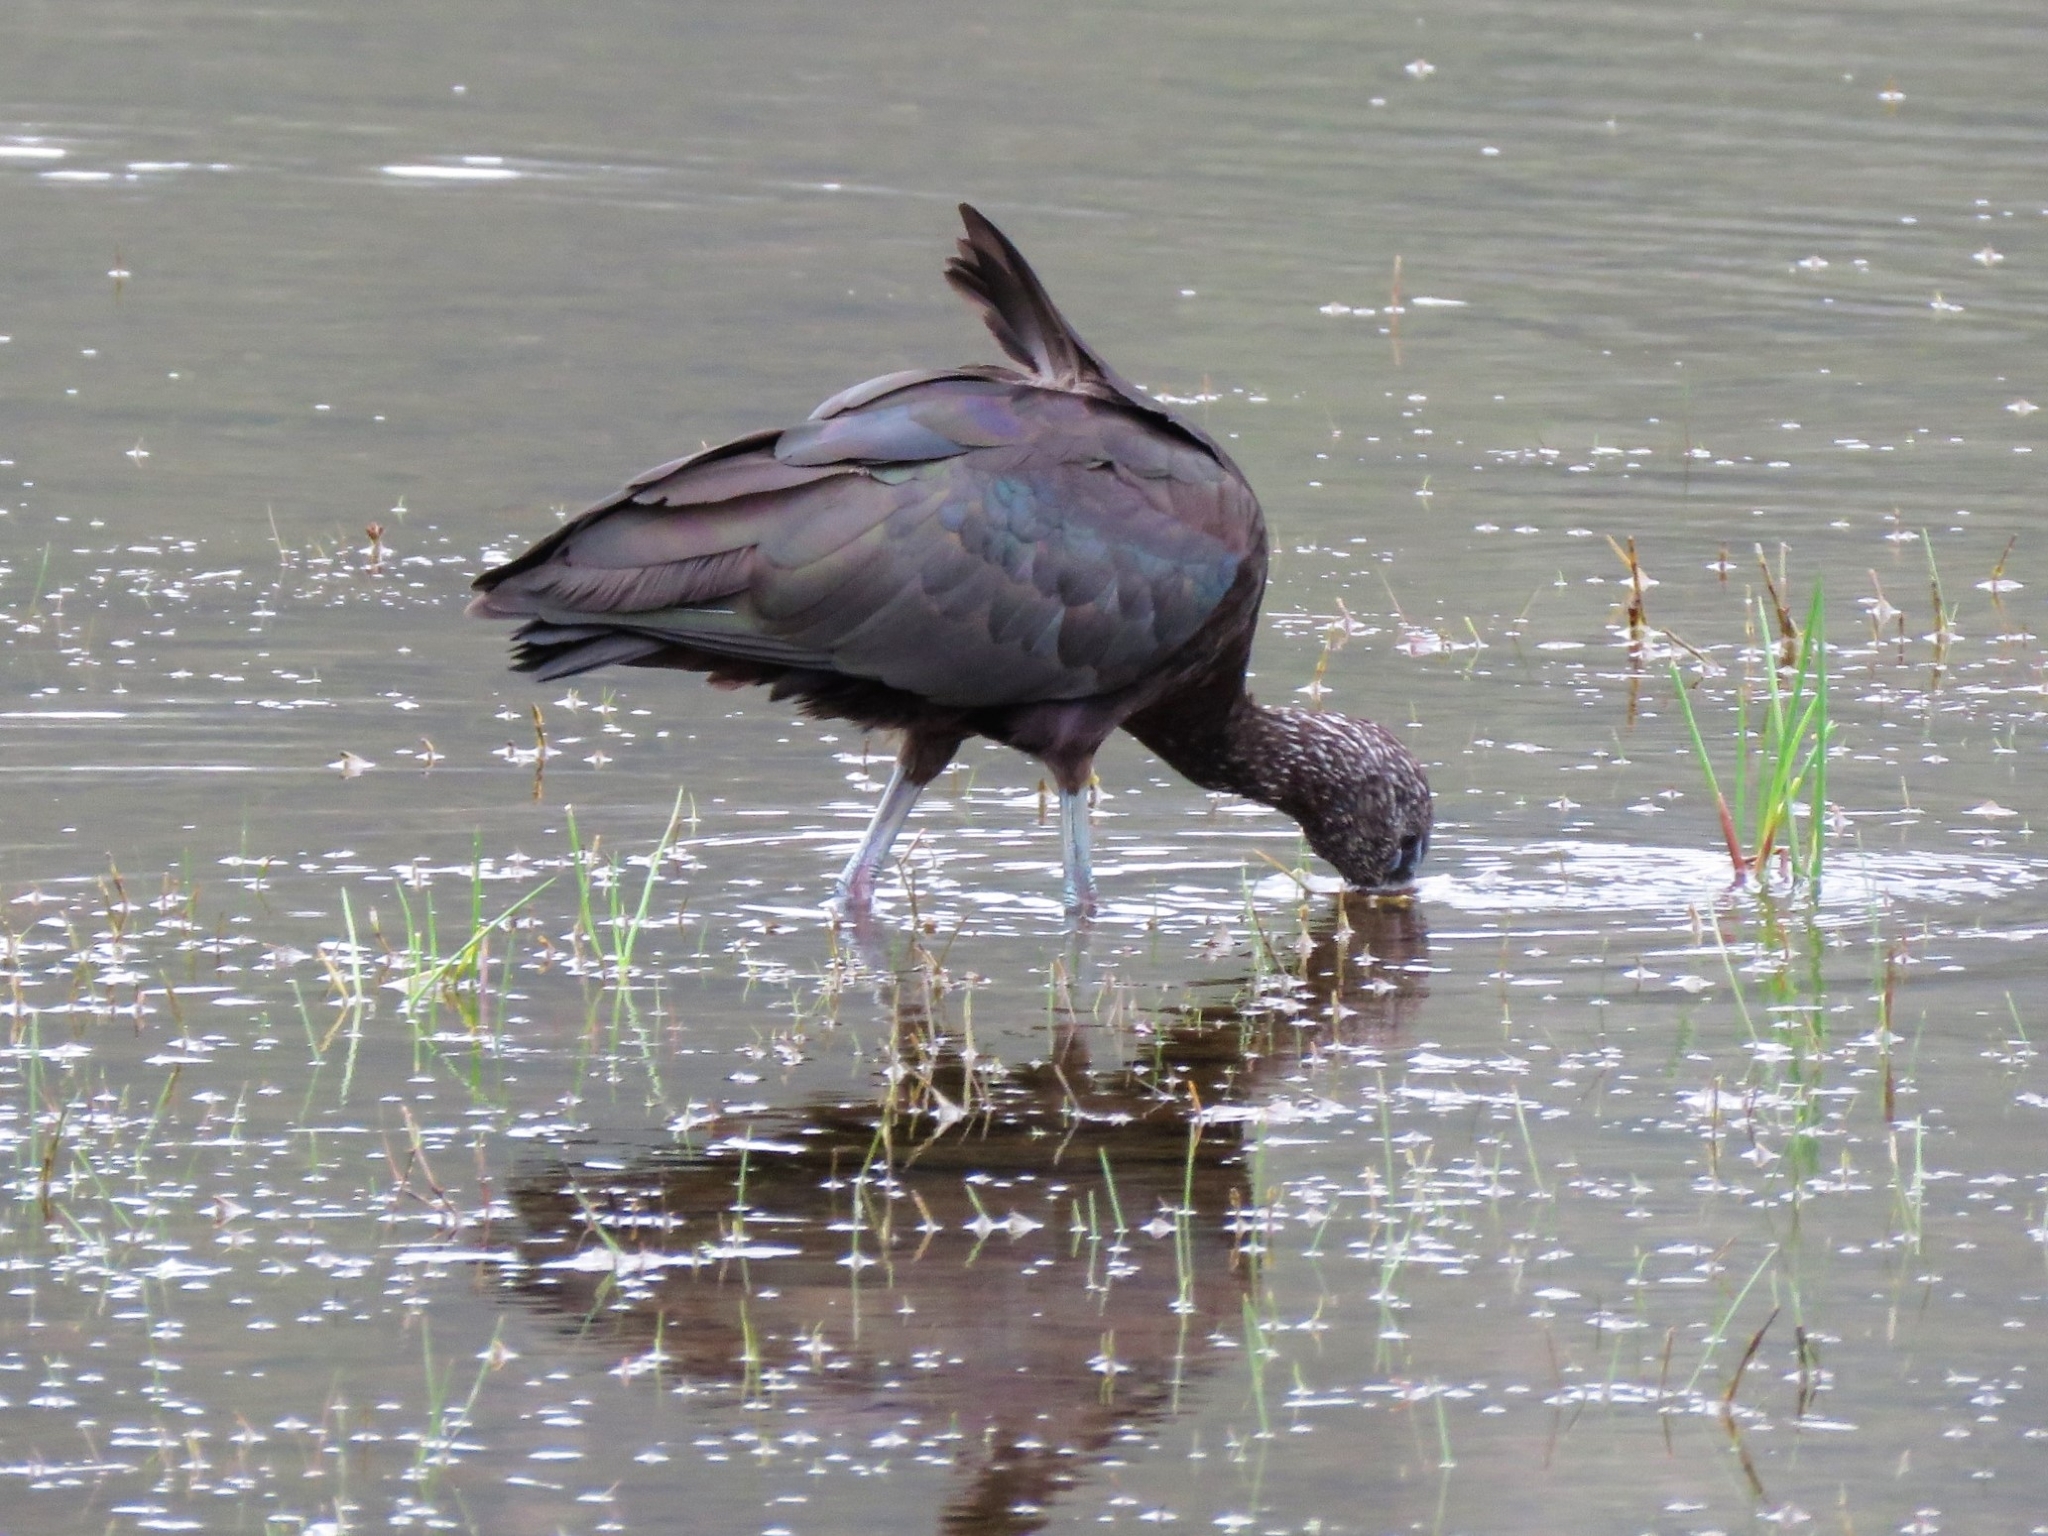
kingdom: Animalia
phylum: Chordata
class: Aves
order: Pelecaniformes
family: Threskiornithidae
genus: Plegadis
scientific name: Plegadis falcinellus
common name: Glossy ibis
